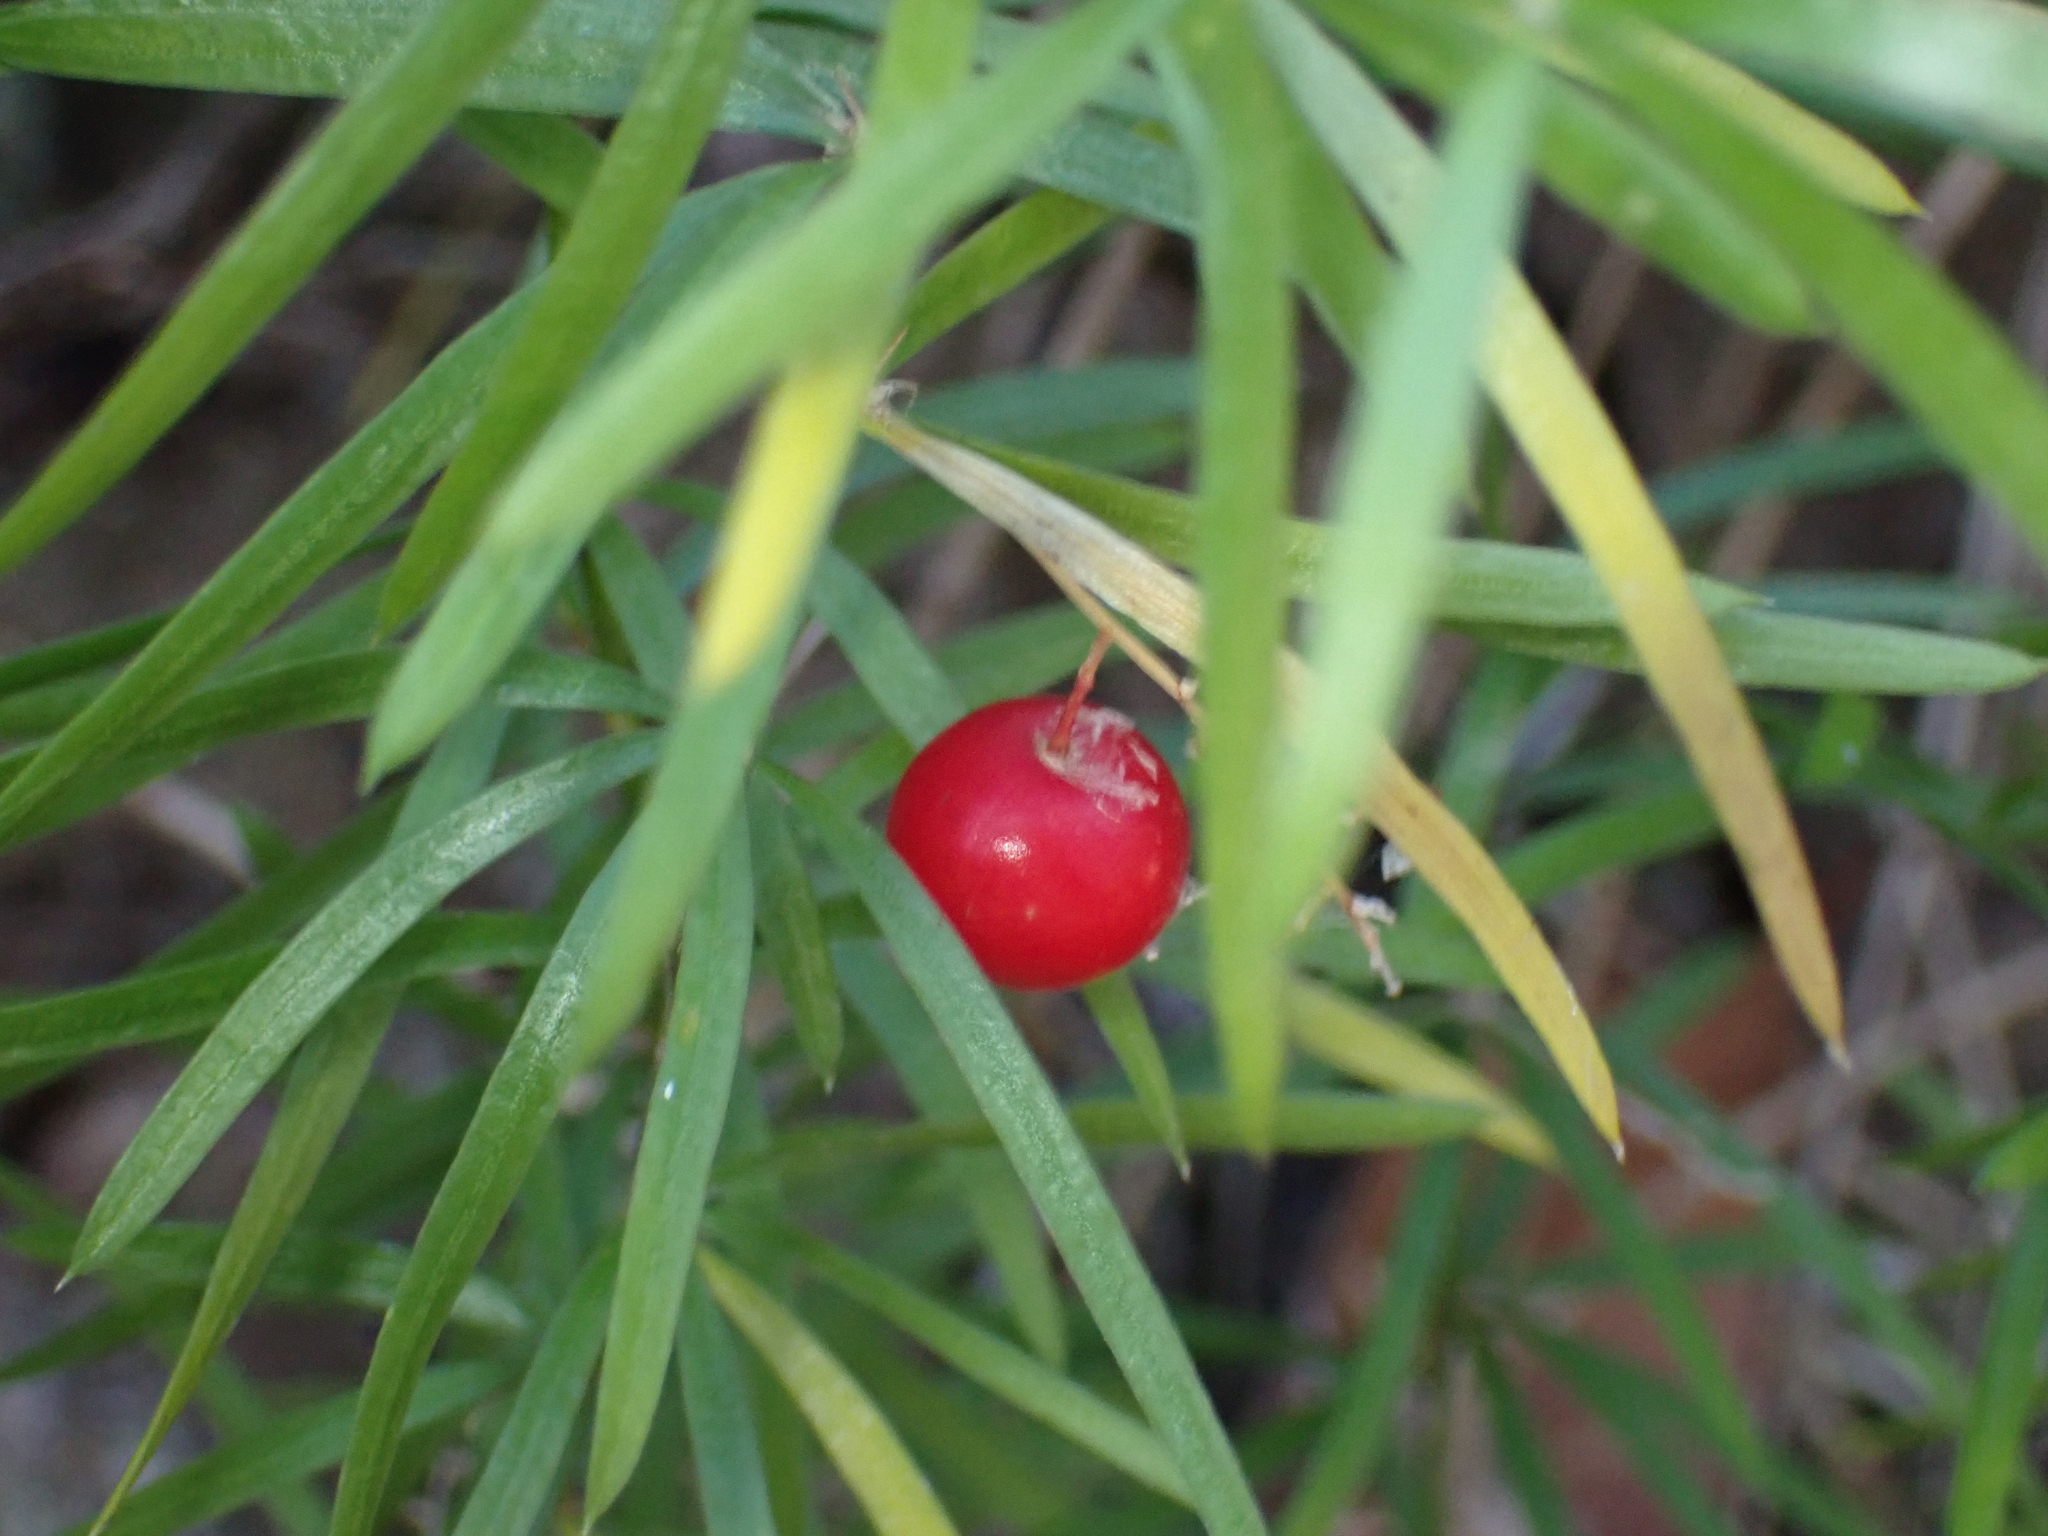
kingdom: Plantae
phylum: Tracheophyta
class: Liliopsida
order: Asparagales
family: Asparagaceae
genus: Asparagus
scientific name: Asparagus aethiopicus
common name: Sprenger's asparagus fern
